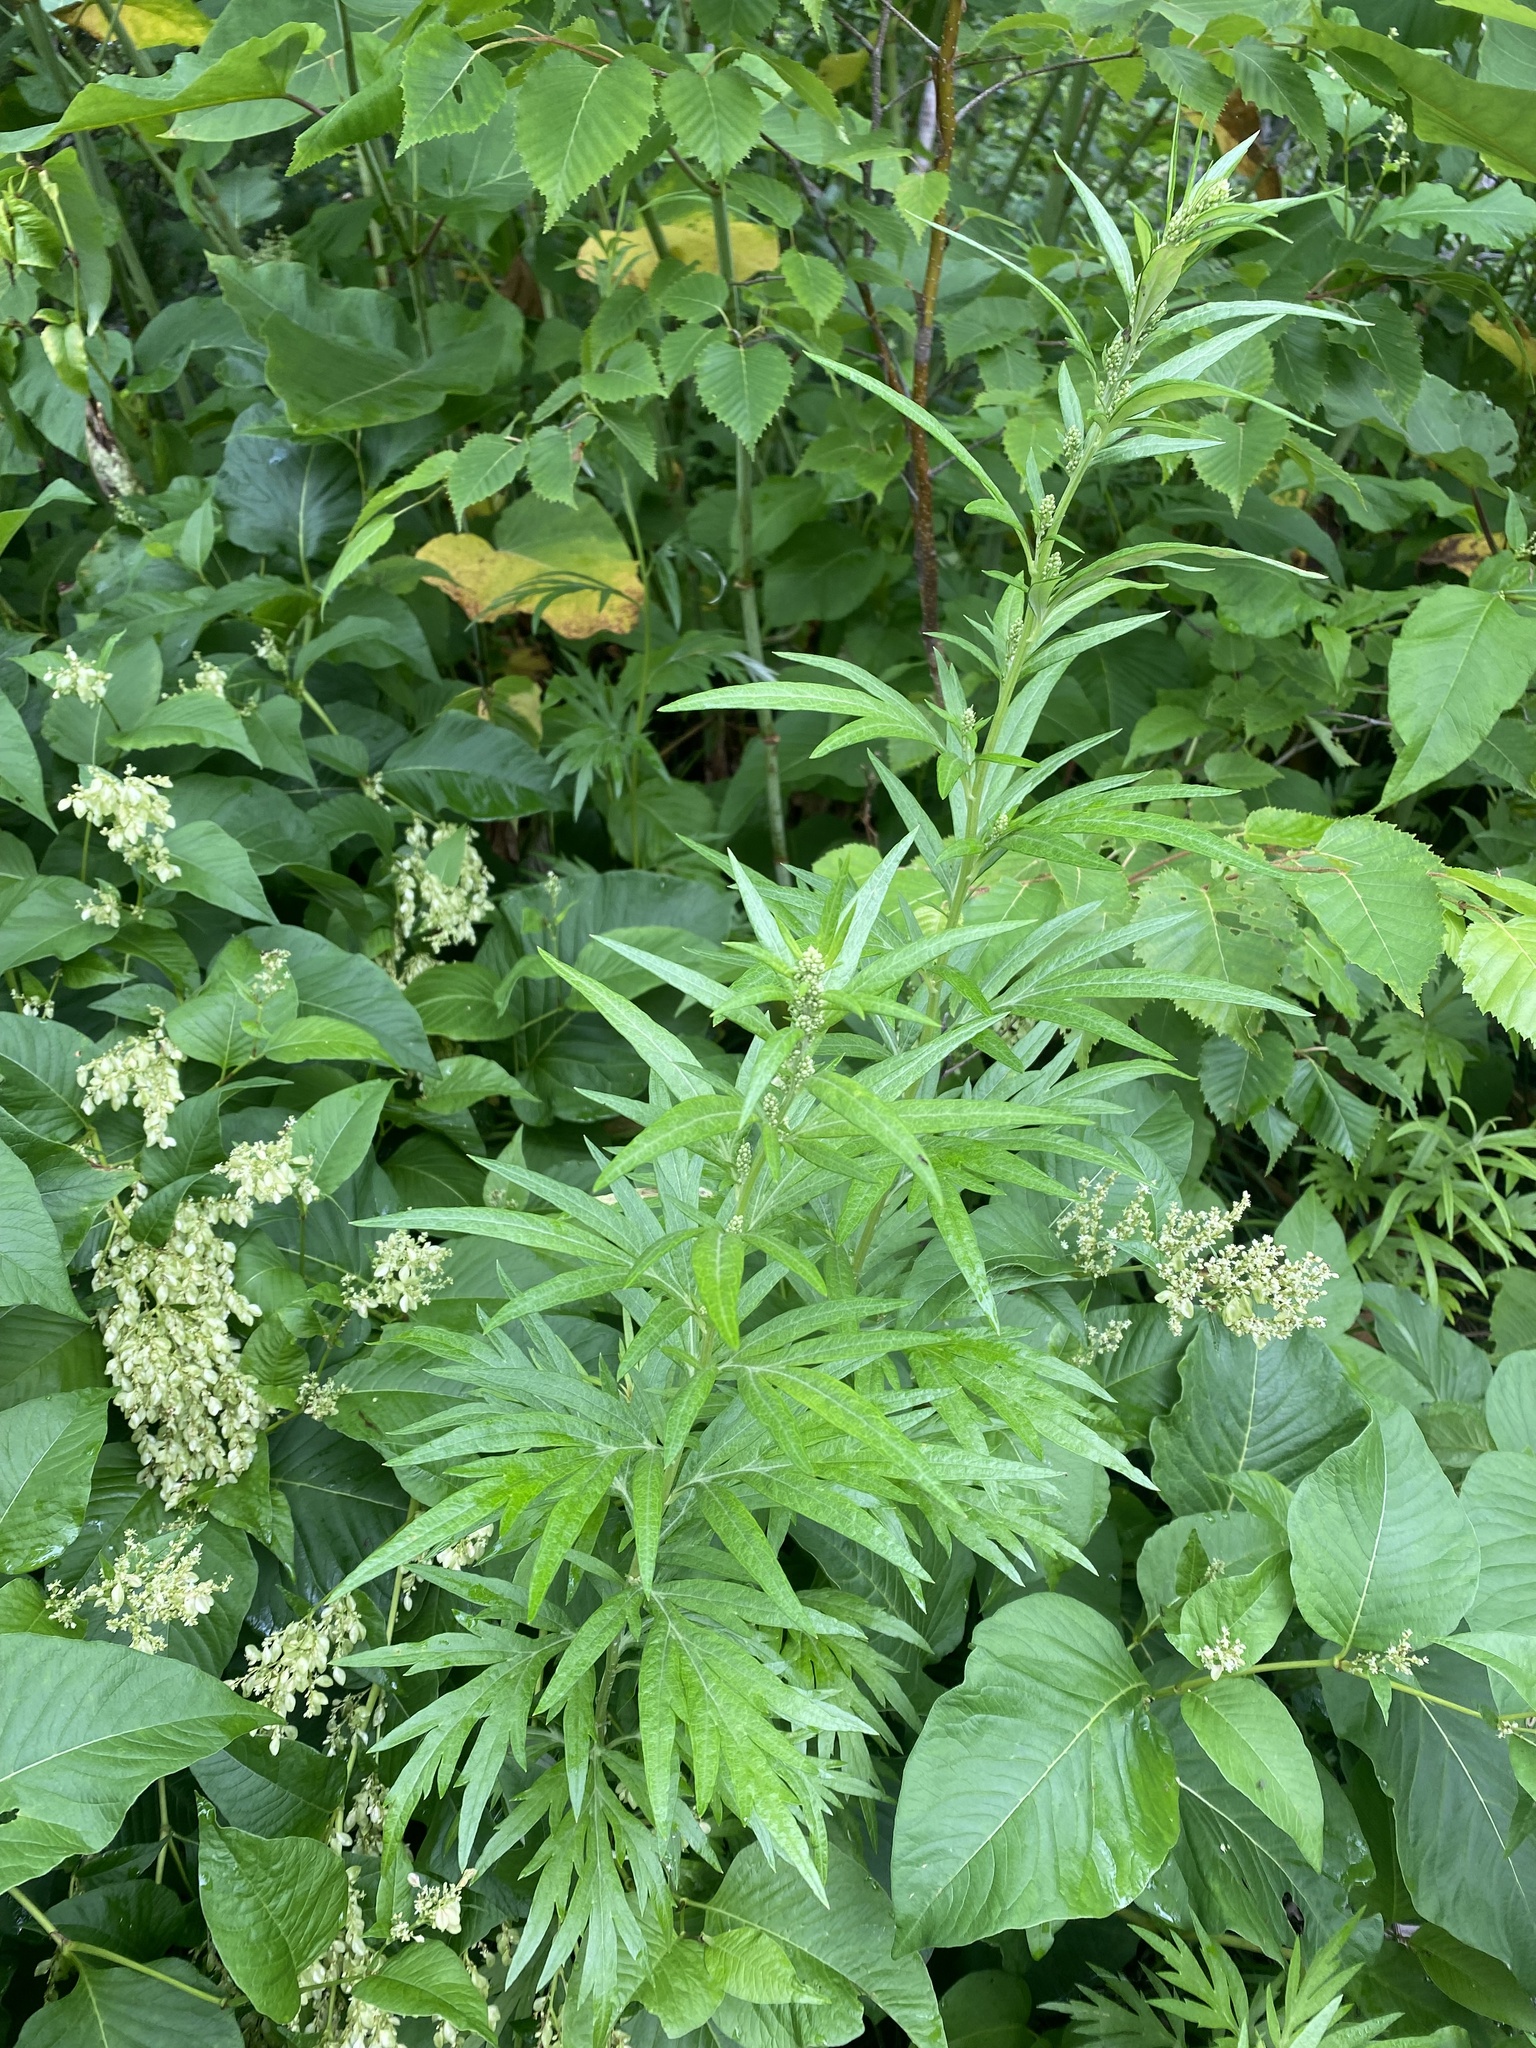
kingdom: Plantae
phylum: Tracheophyta
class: Magnoliopsida
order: Asterales
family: Asteraceae
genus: Artemisia
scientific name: Artemisia montana
